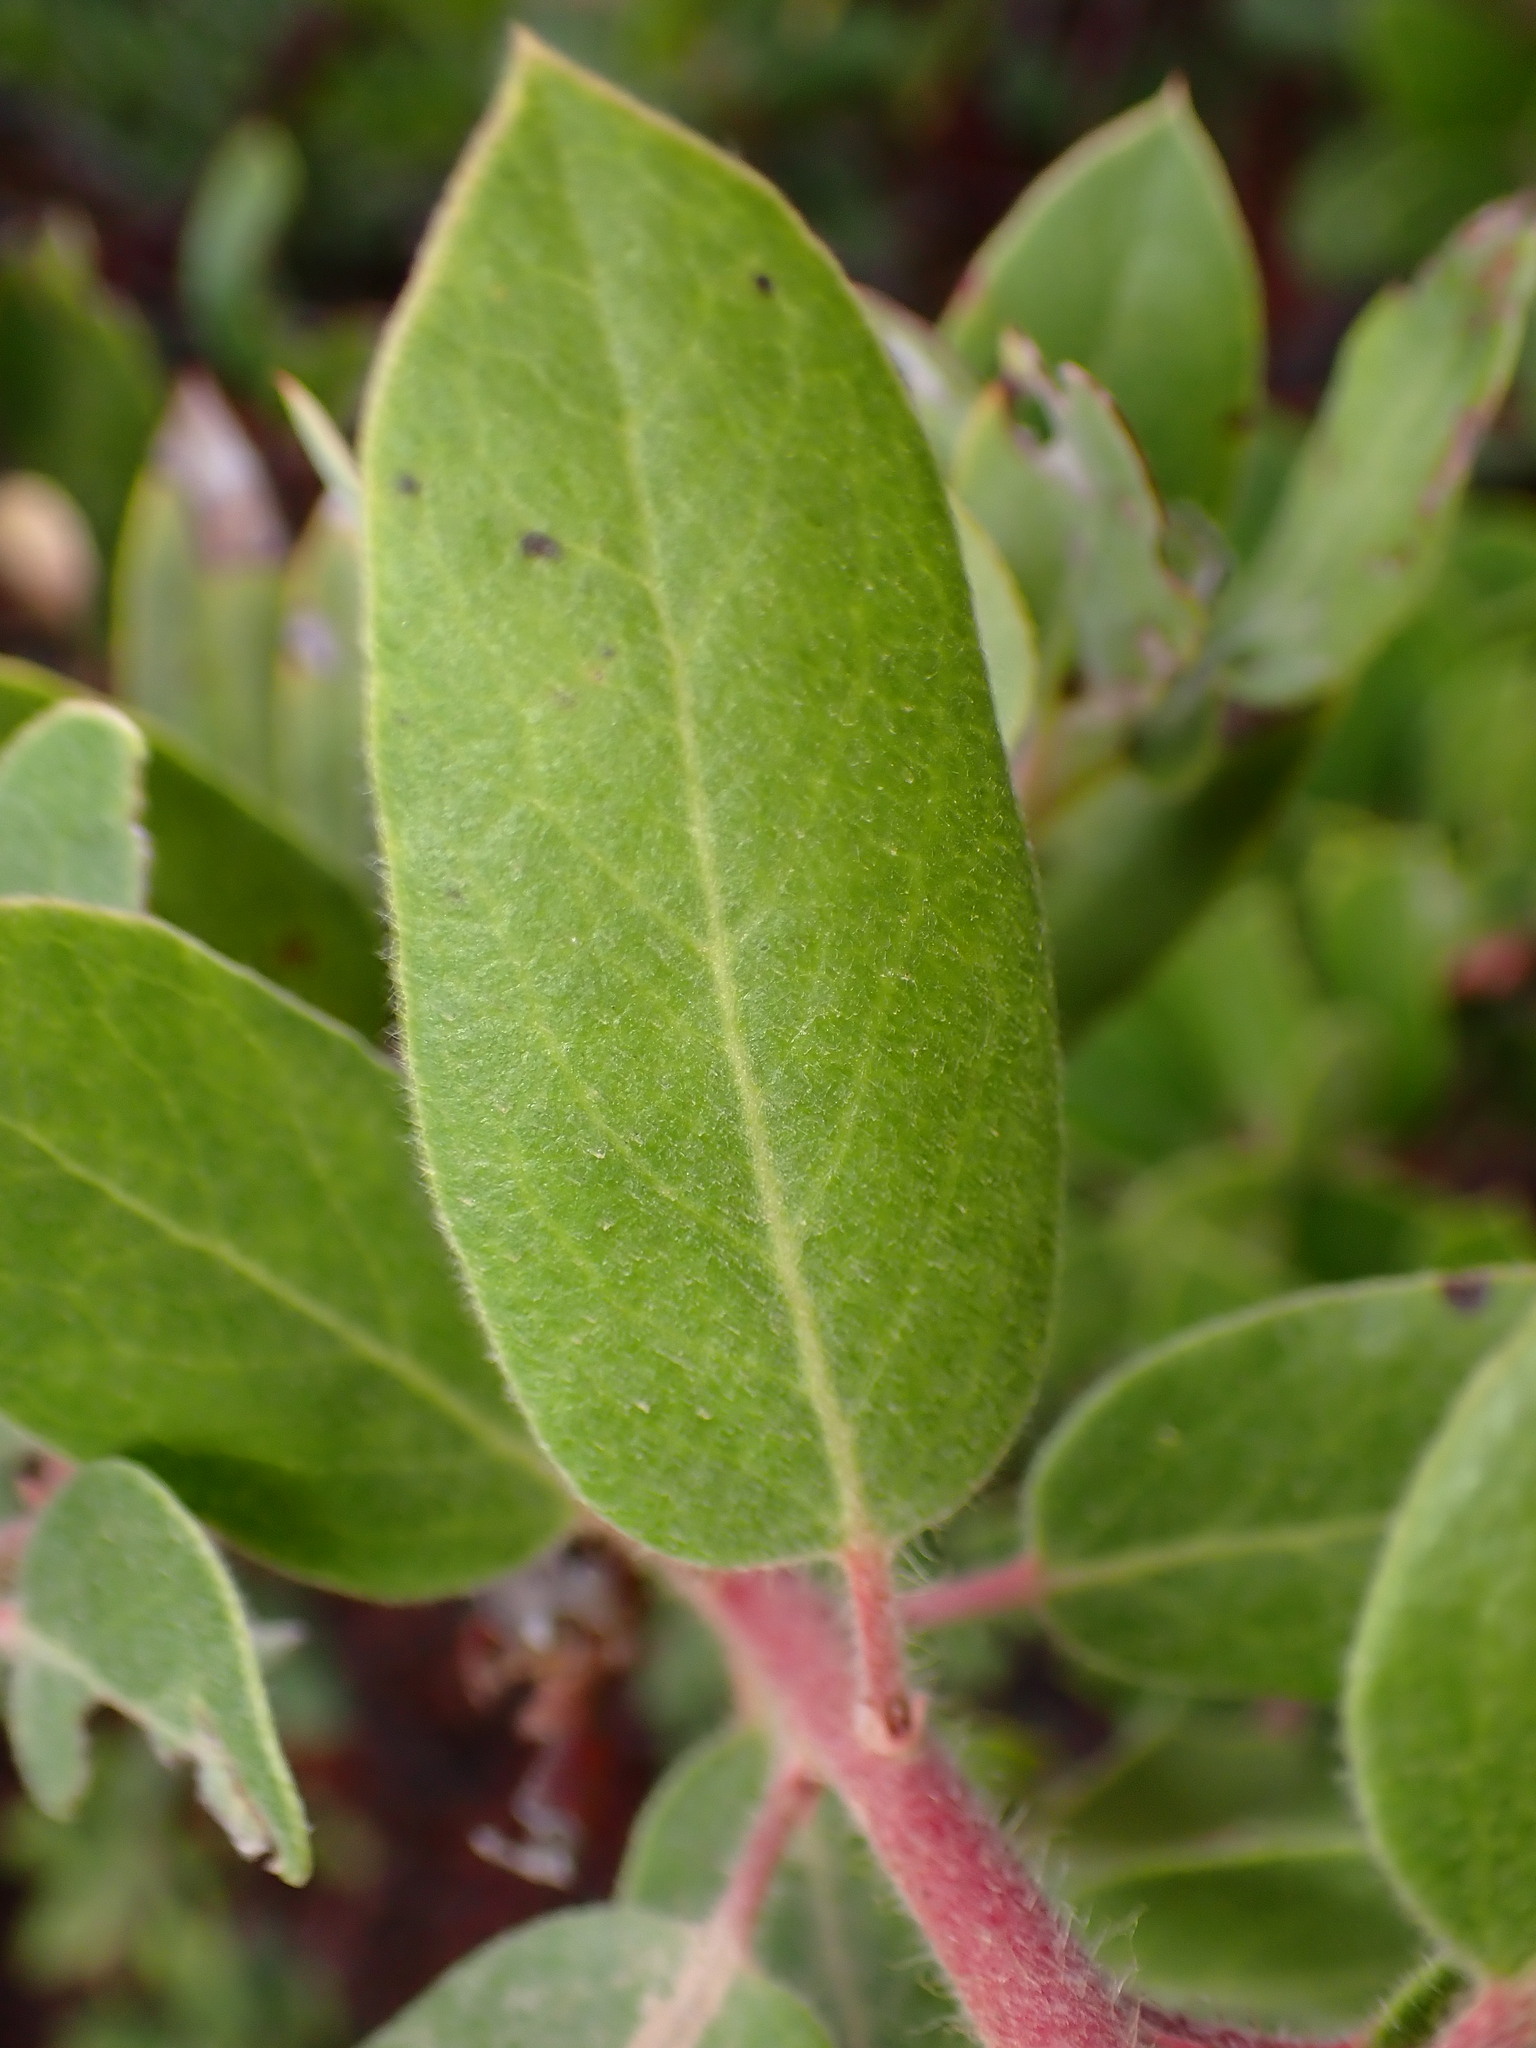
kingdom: Plantae
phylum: Tracheophyta
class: Magnoliopsida
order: Ericales
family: Ericaceae
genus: Arctostaphylos
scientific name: Arctostaphylos crustacea
